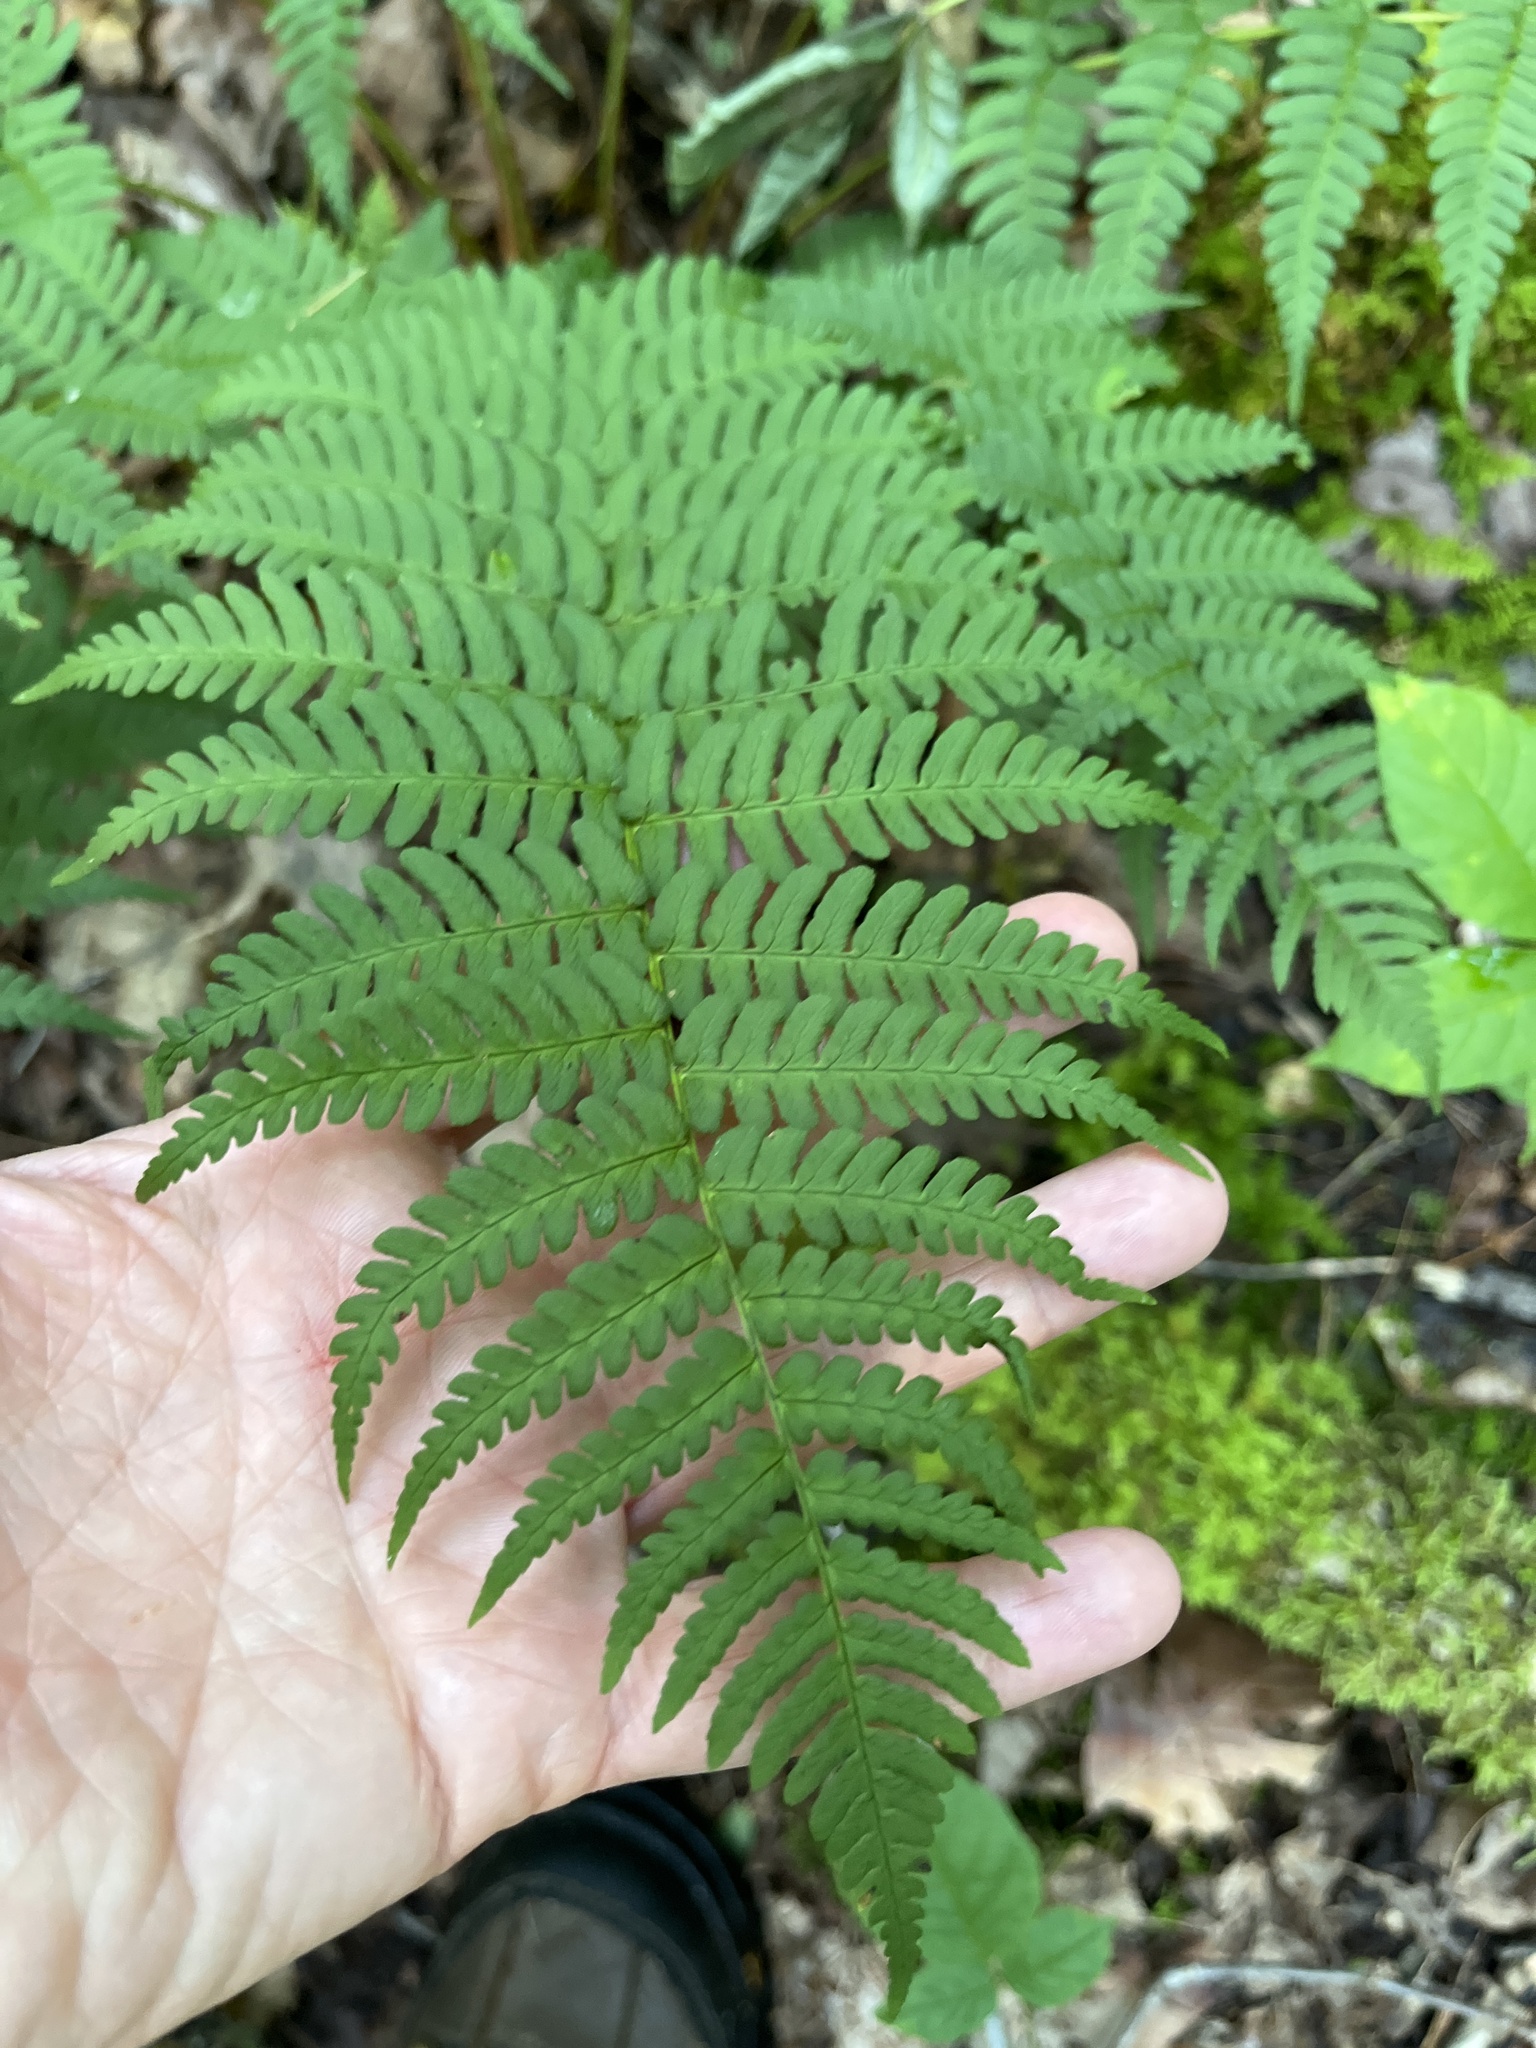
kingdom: Plantae
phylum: Tracheophyta
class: Polypodiopsida
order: Polypodiales
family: Dryopteridaceae
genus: Dryopteris
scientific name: Dryopteris marginalis
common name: Marginal wood fern
